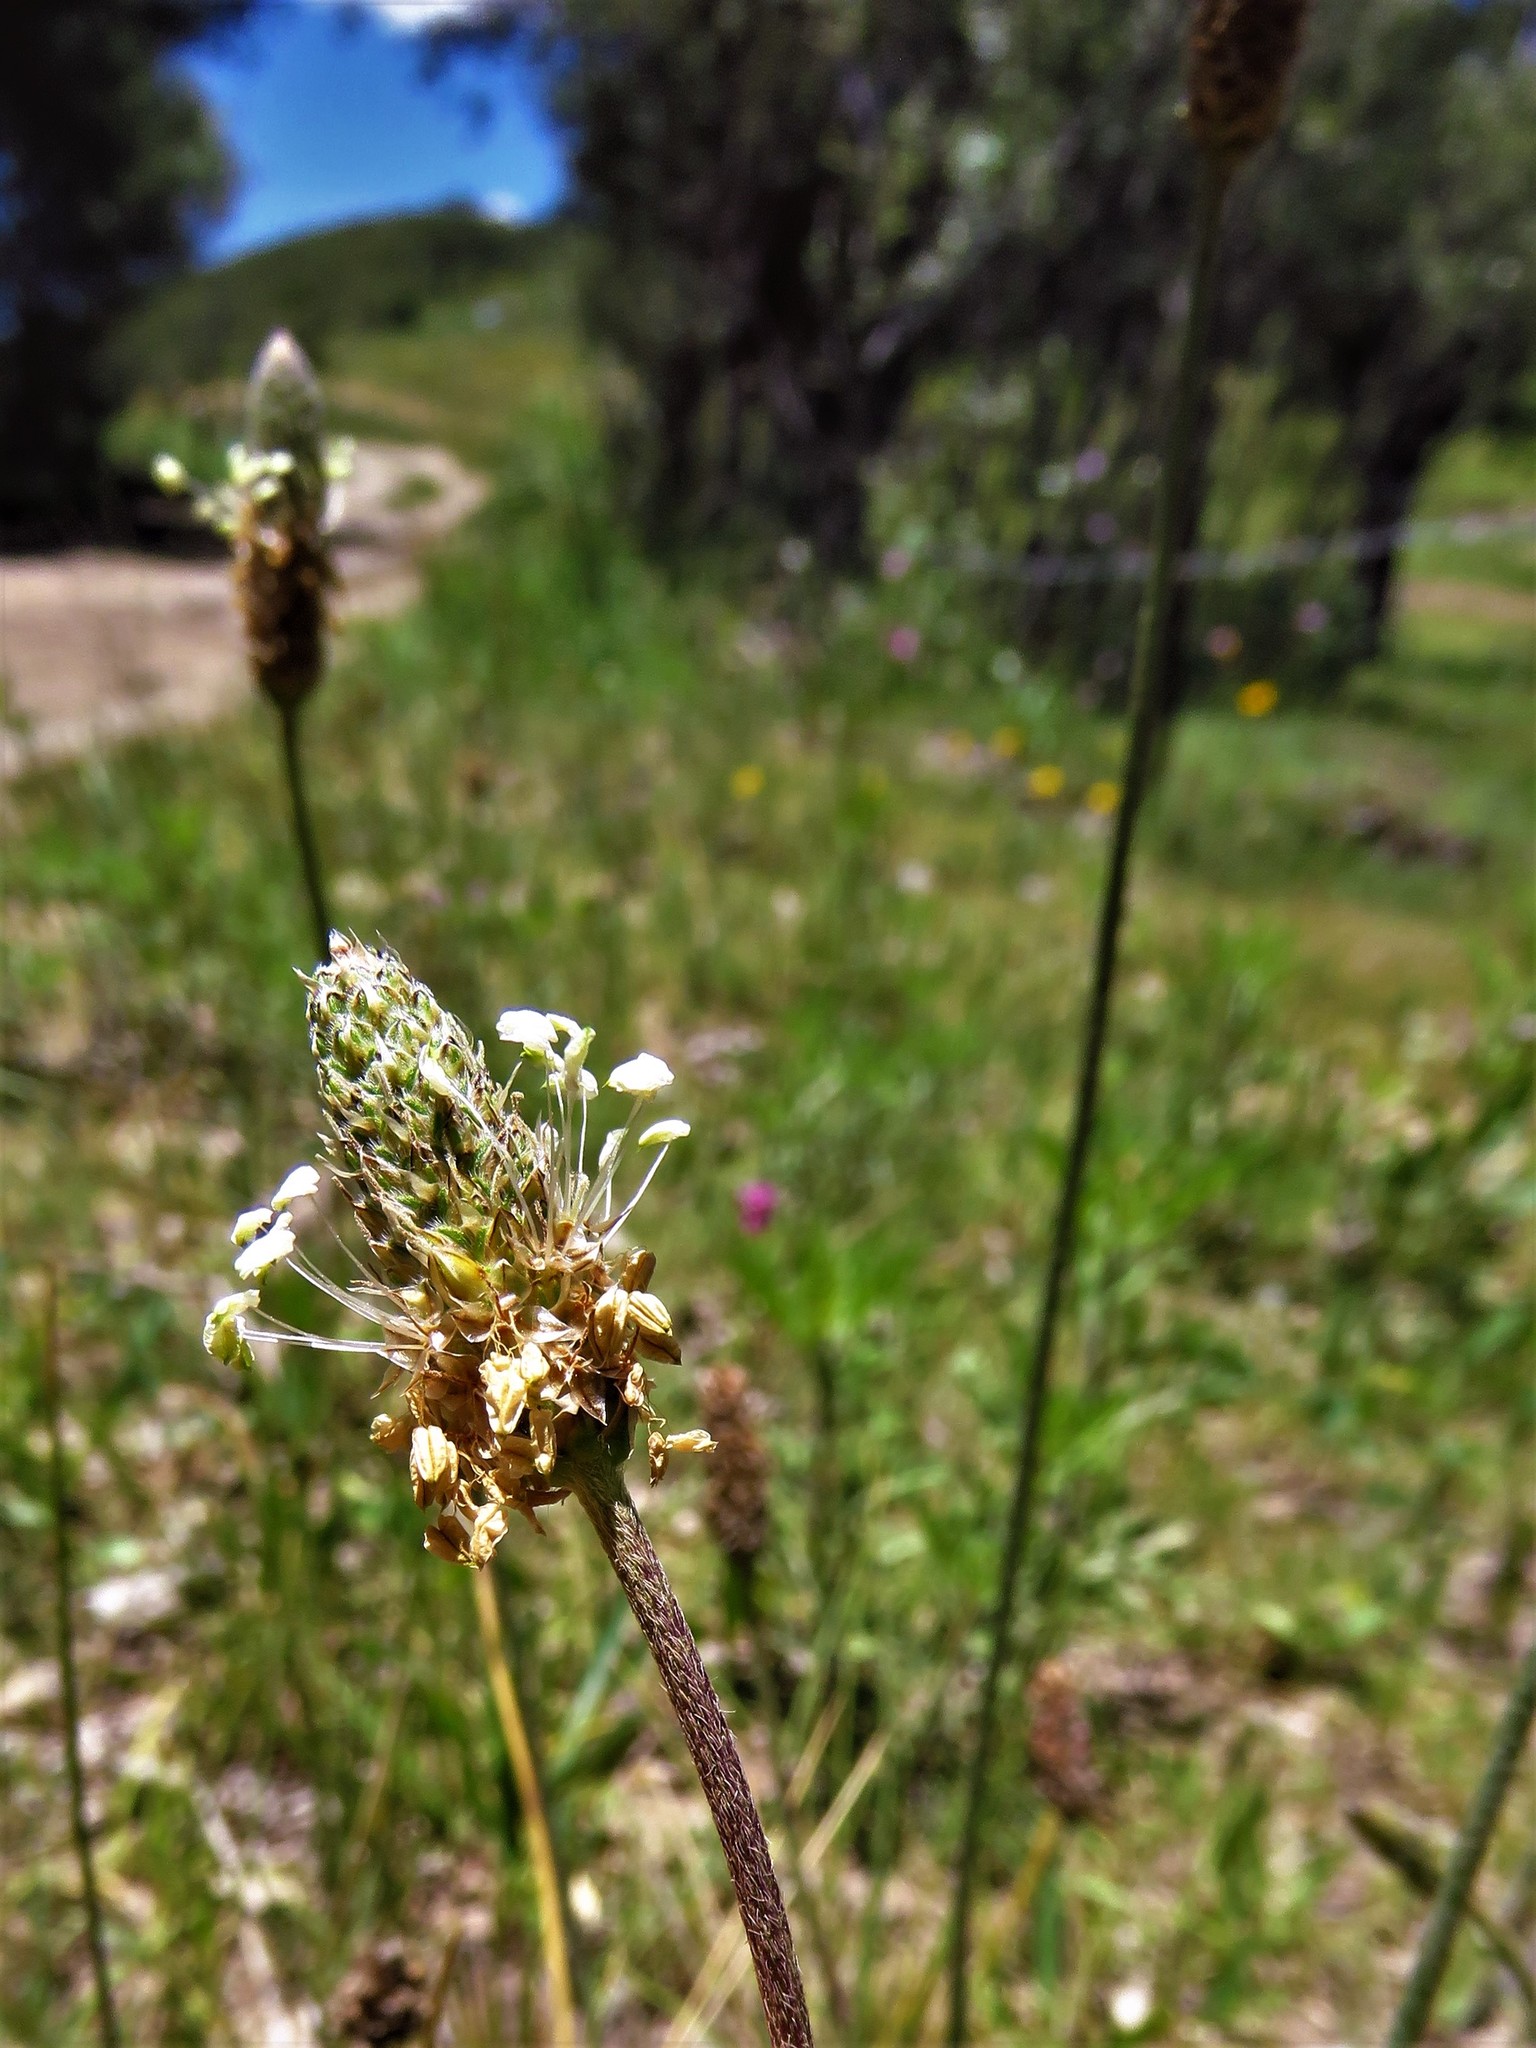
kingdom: Plantae
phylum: Tracheophyta
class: Magnoliopsida
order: Lamiales
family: Plantaginaceae
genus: Plantago
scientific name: Plantago lanceolata
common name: Ribwort plantain
